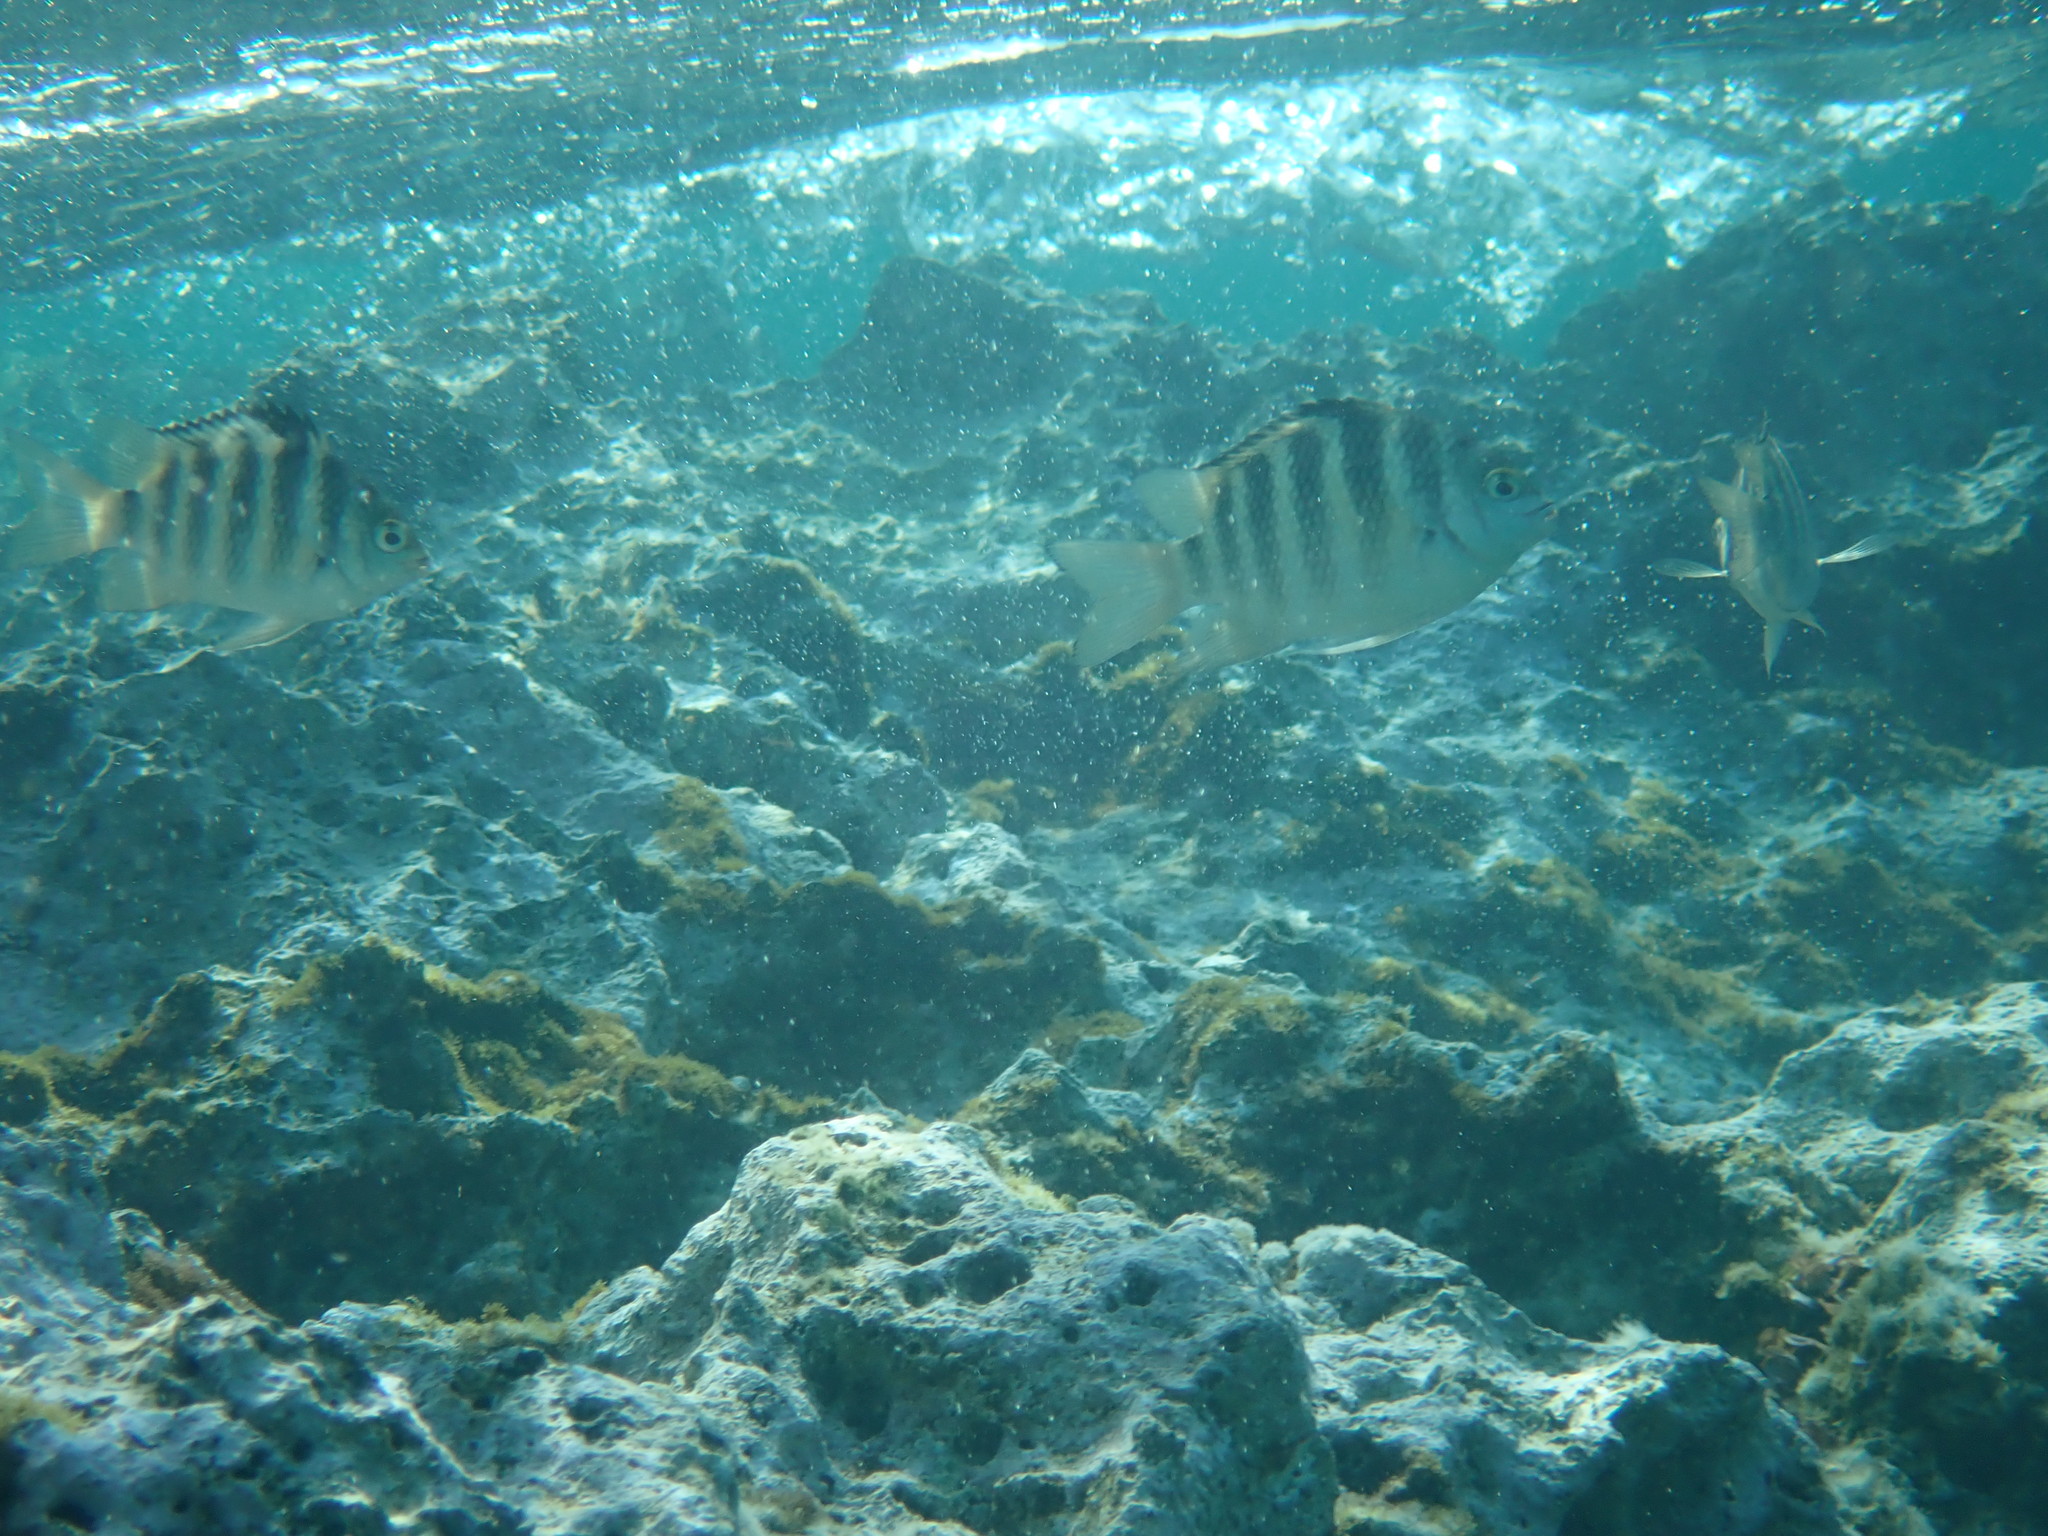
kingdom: Animalia
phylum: Chordata
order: Perciformes
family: Pomacentridae
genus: Abudefduf
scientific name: Abudefduf septemfasciatus
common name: Banded sergeant
